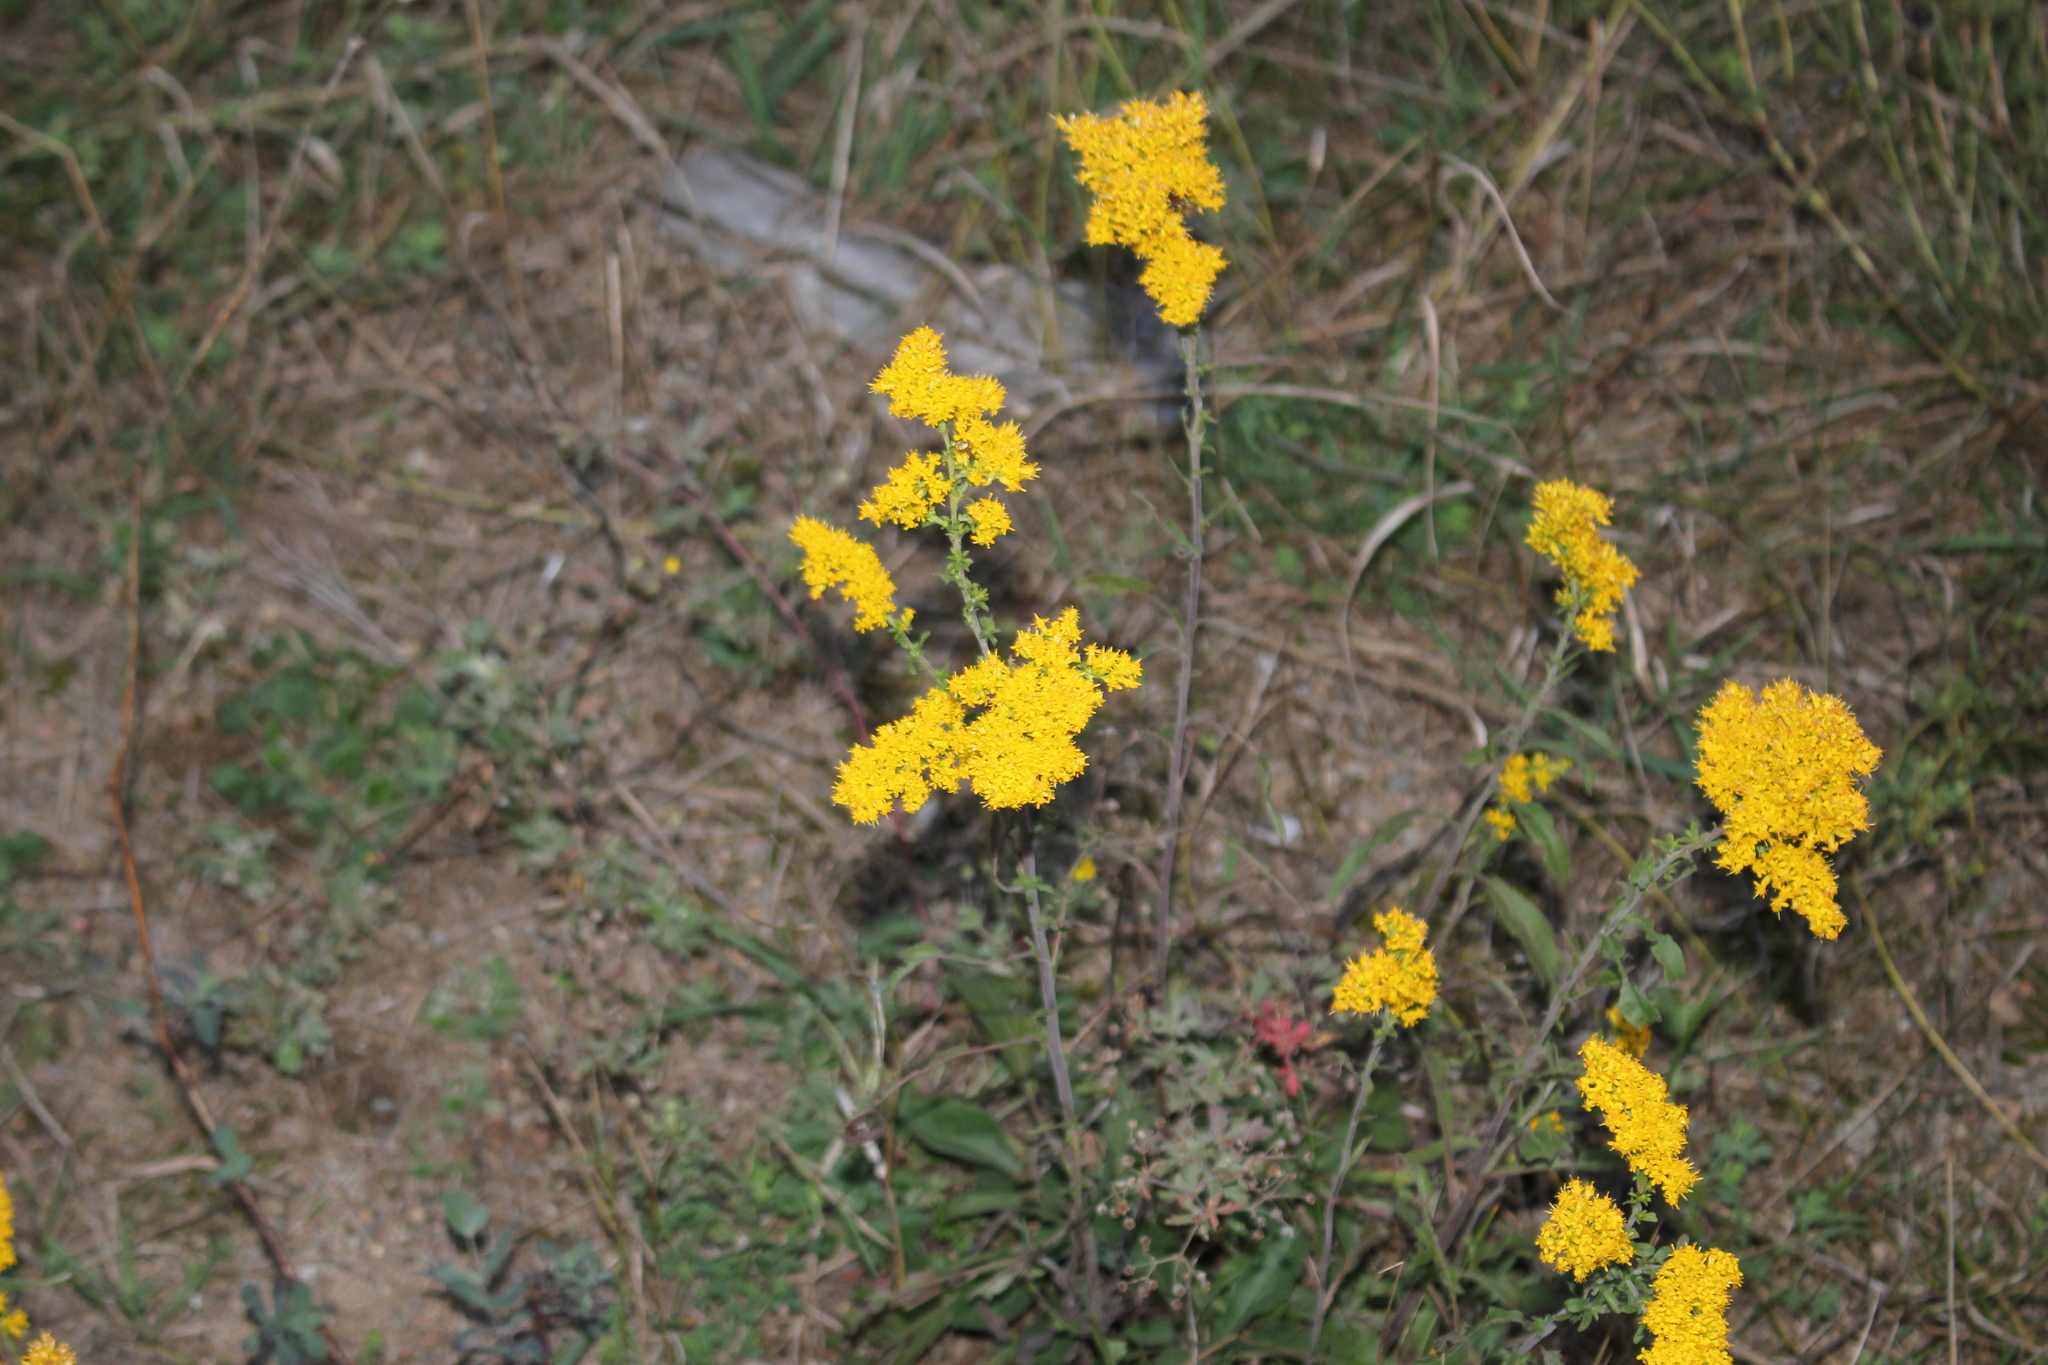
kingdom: Plantae
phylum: Tracheophyta
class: Magnoliopsida
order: Asterales
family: Asteraceae
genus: Solidago
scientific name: Solidago nemoralis
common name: Grey goldenrod
